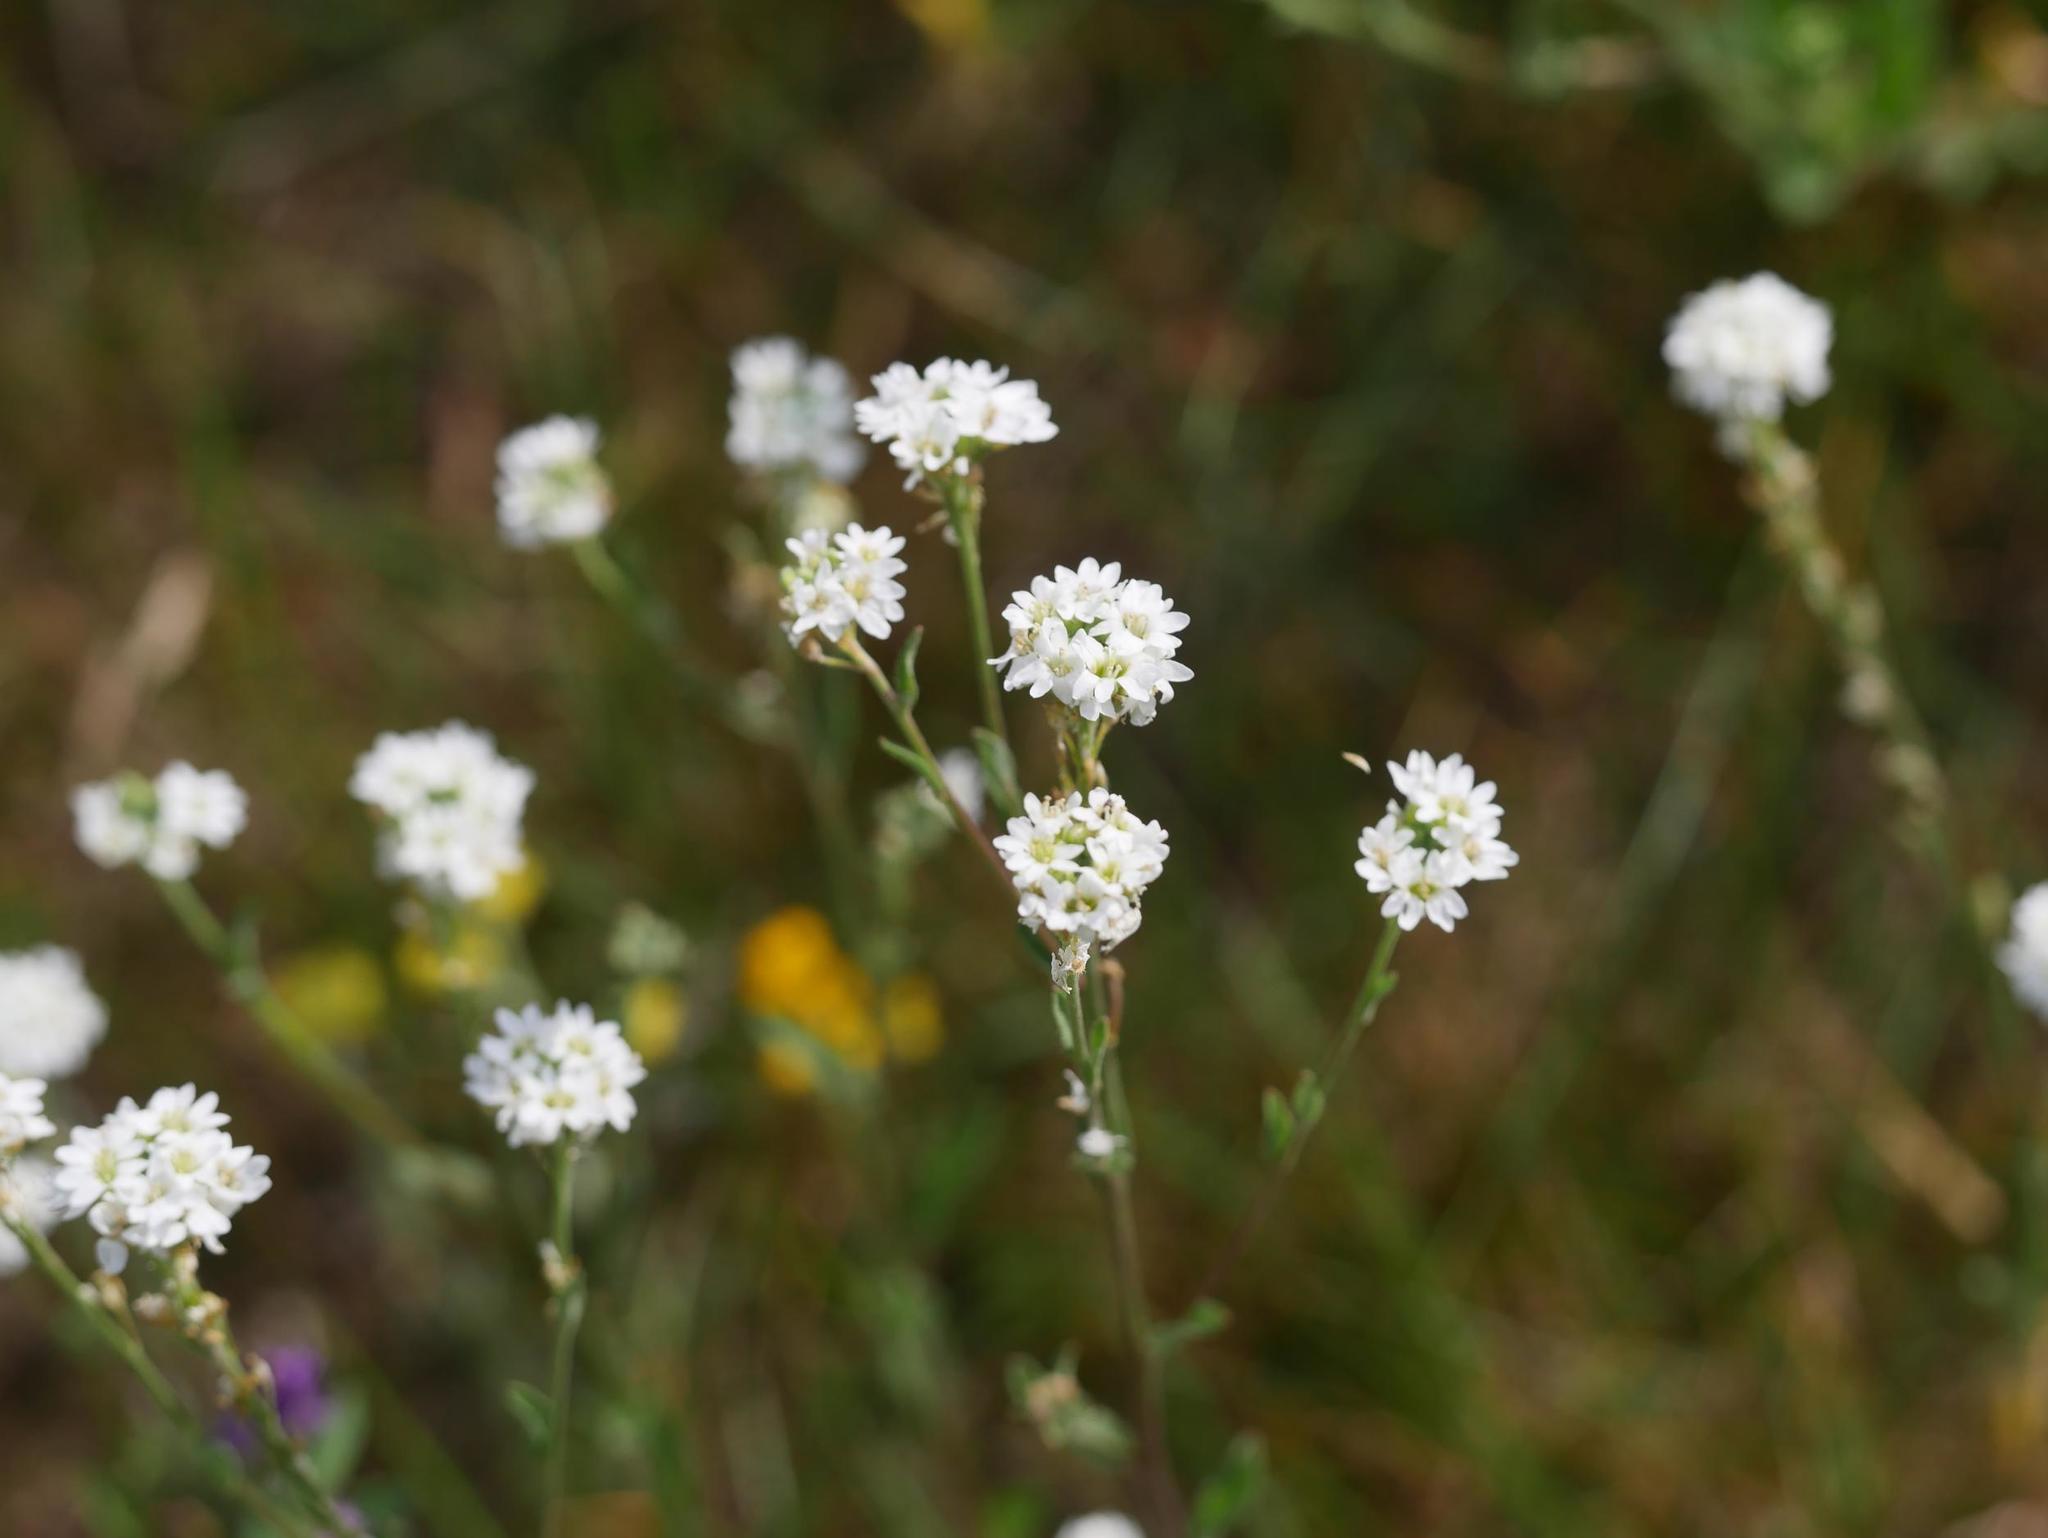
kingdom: Plantae
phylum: Tracheophyta
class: Magnoliopsida
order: Brassicales
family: Brassicaceae
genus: Berteroa
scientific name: Berteroa incana
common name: Hoary alison
